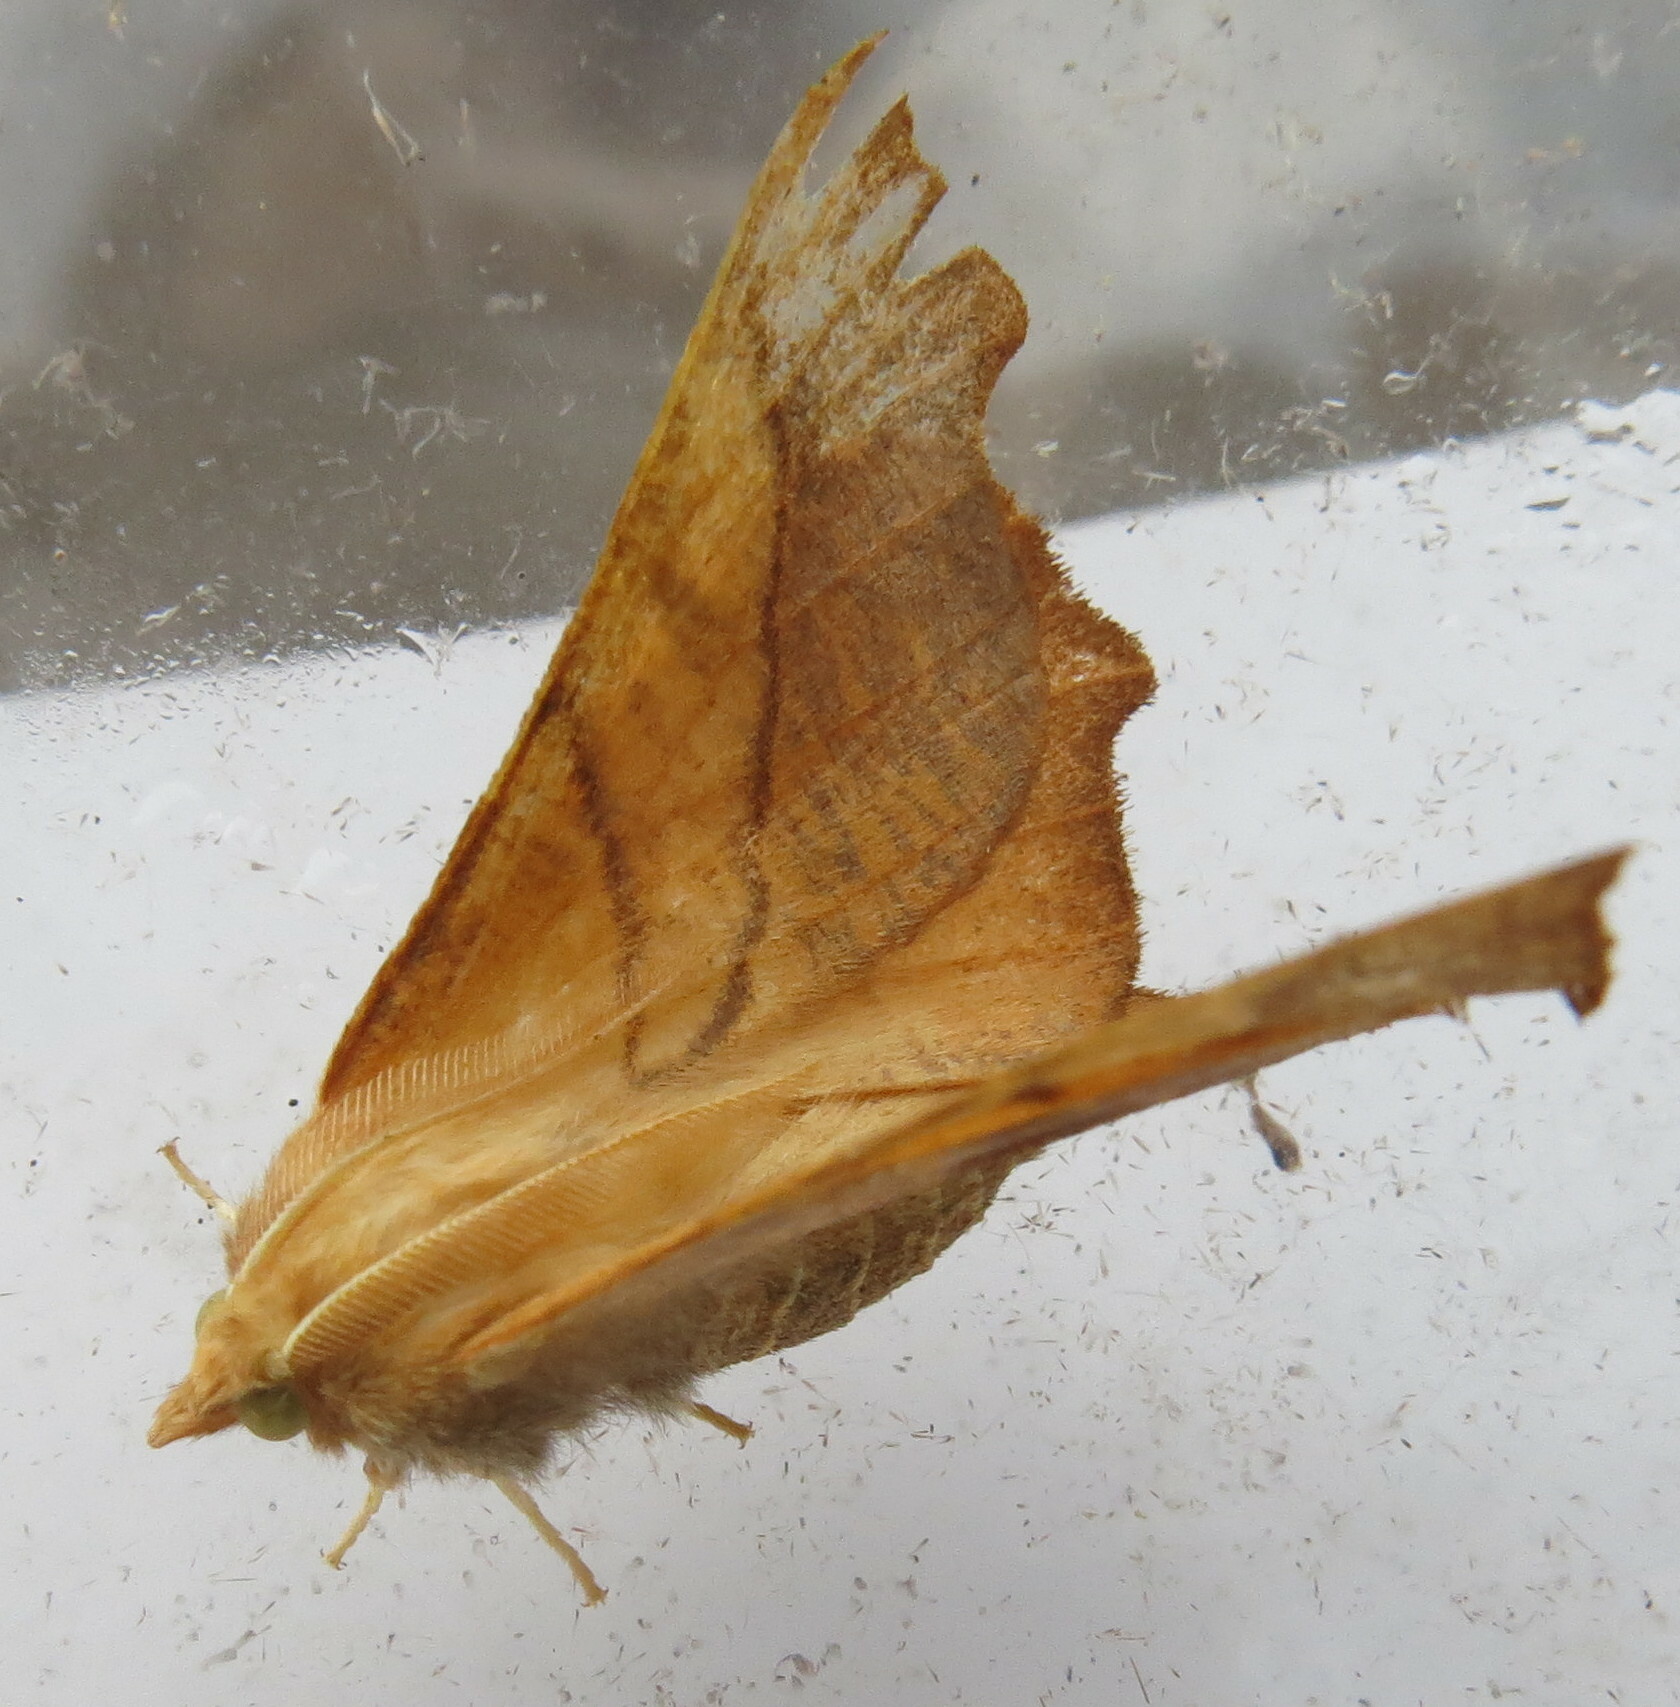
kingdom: Animalia
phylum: Arthropoda
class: Insecta
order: Lepidoptera
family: Geometridae
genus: Ennomos
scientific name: Ennomos fuscantaria
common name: Dusky thorn
